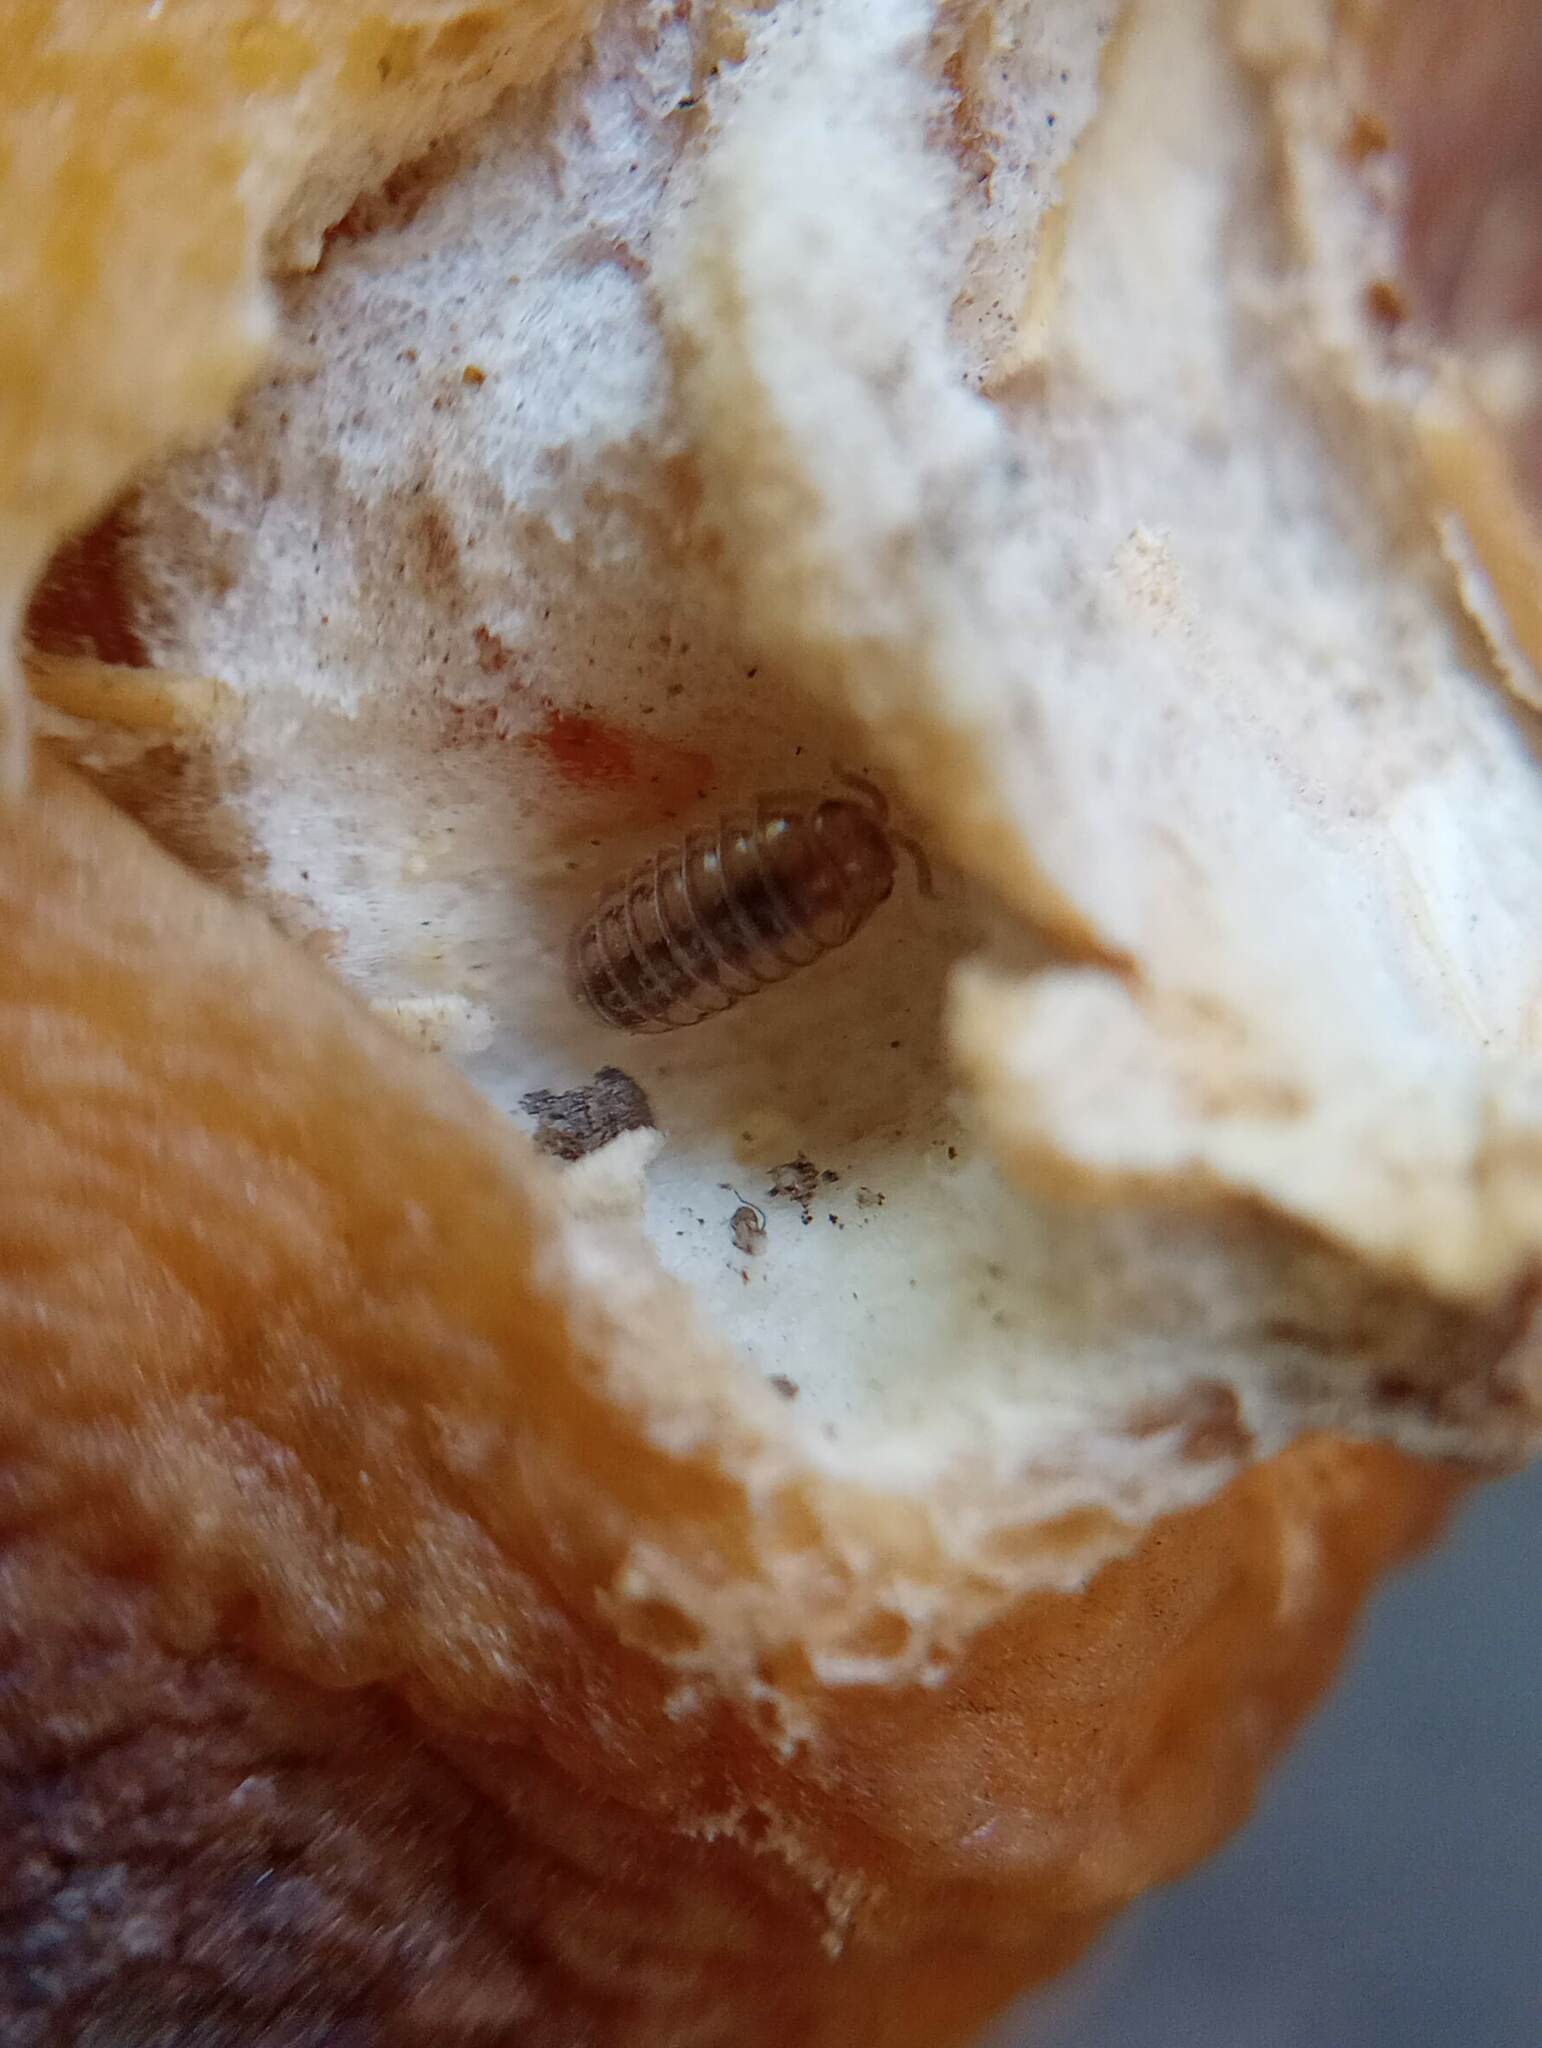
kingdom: Animalia
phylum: Arthropoda
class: Malacostraca
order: Isopoda
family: Armadillidiidae
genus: Armadillidium
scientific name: Armadillidium vulgare
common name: Common pill woodlouse
